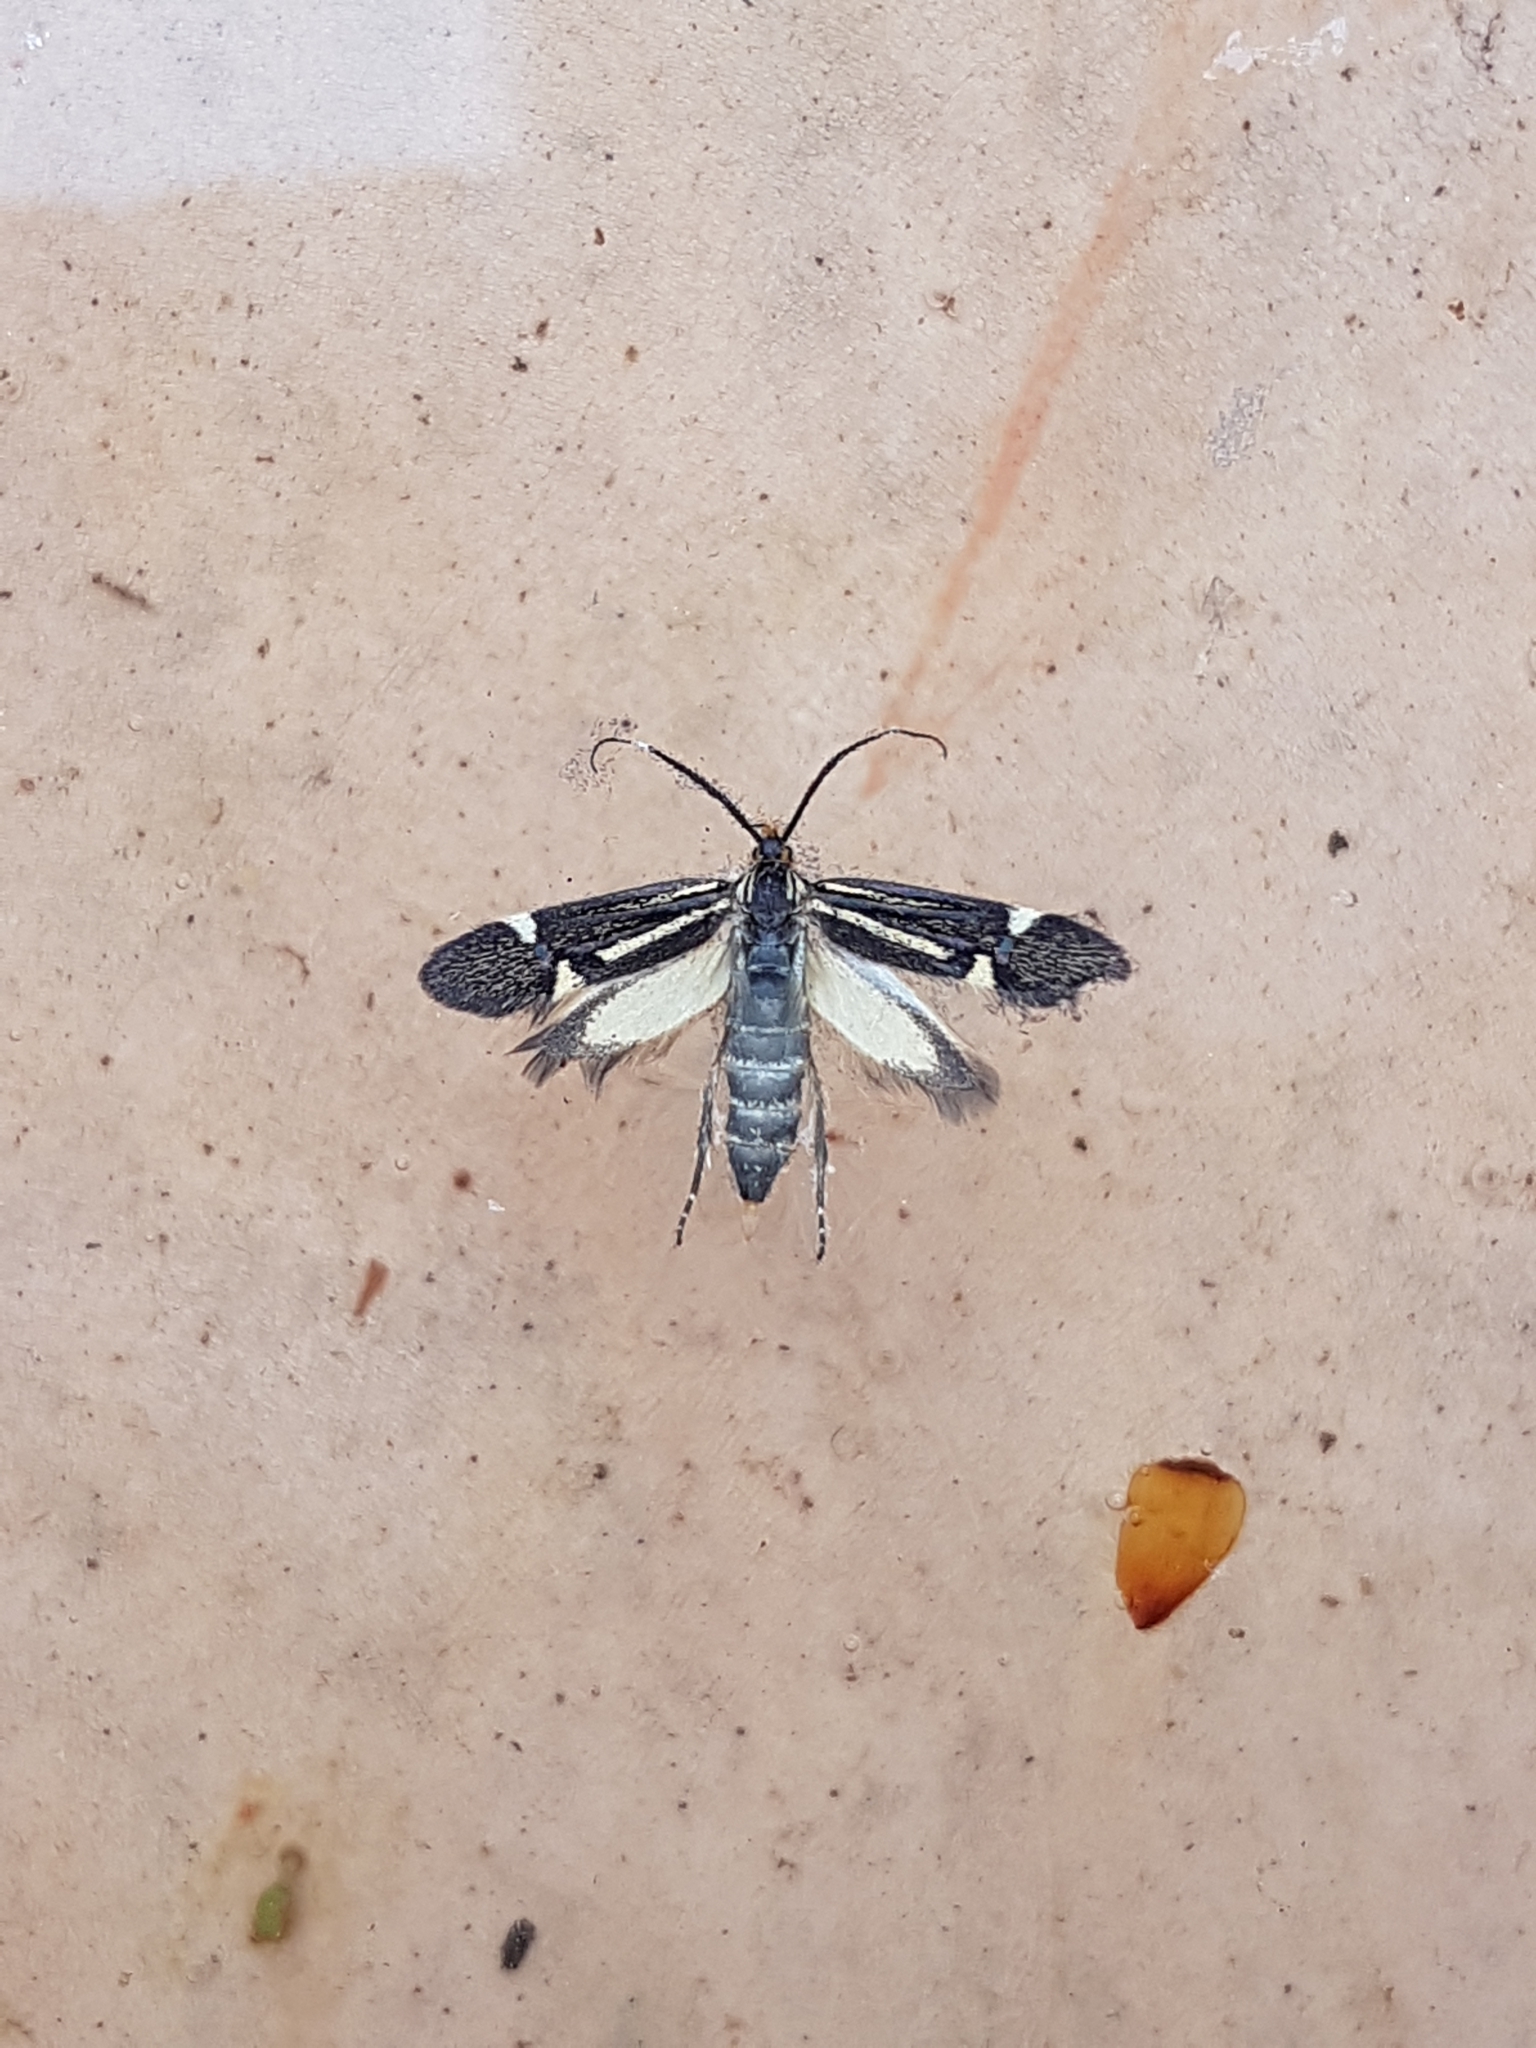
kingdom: Animalia
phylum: Arthropoda
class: Insecta
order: Lepidoptera
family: Oecophoridae
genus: Dafa
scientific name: Dafa Esperia sulphurella
